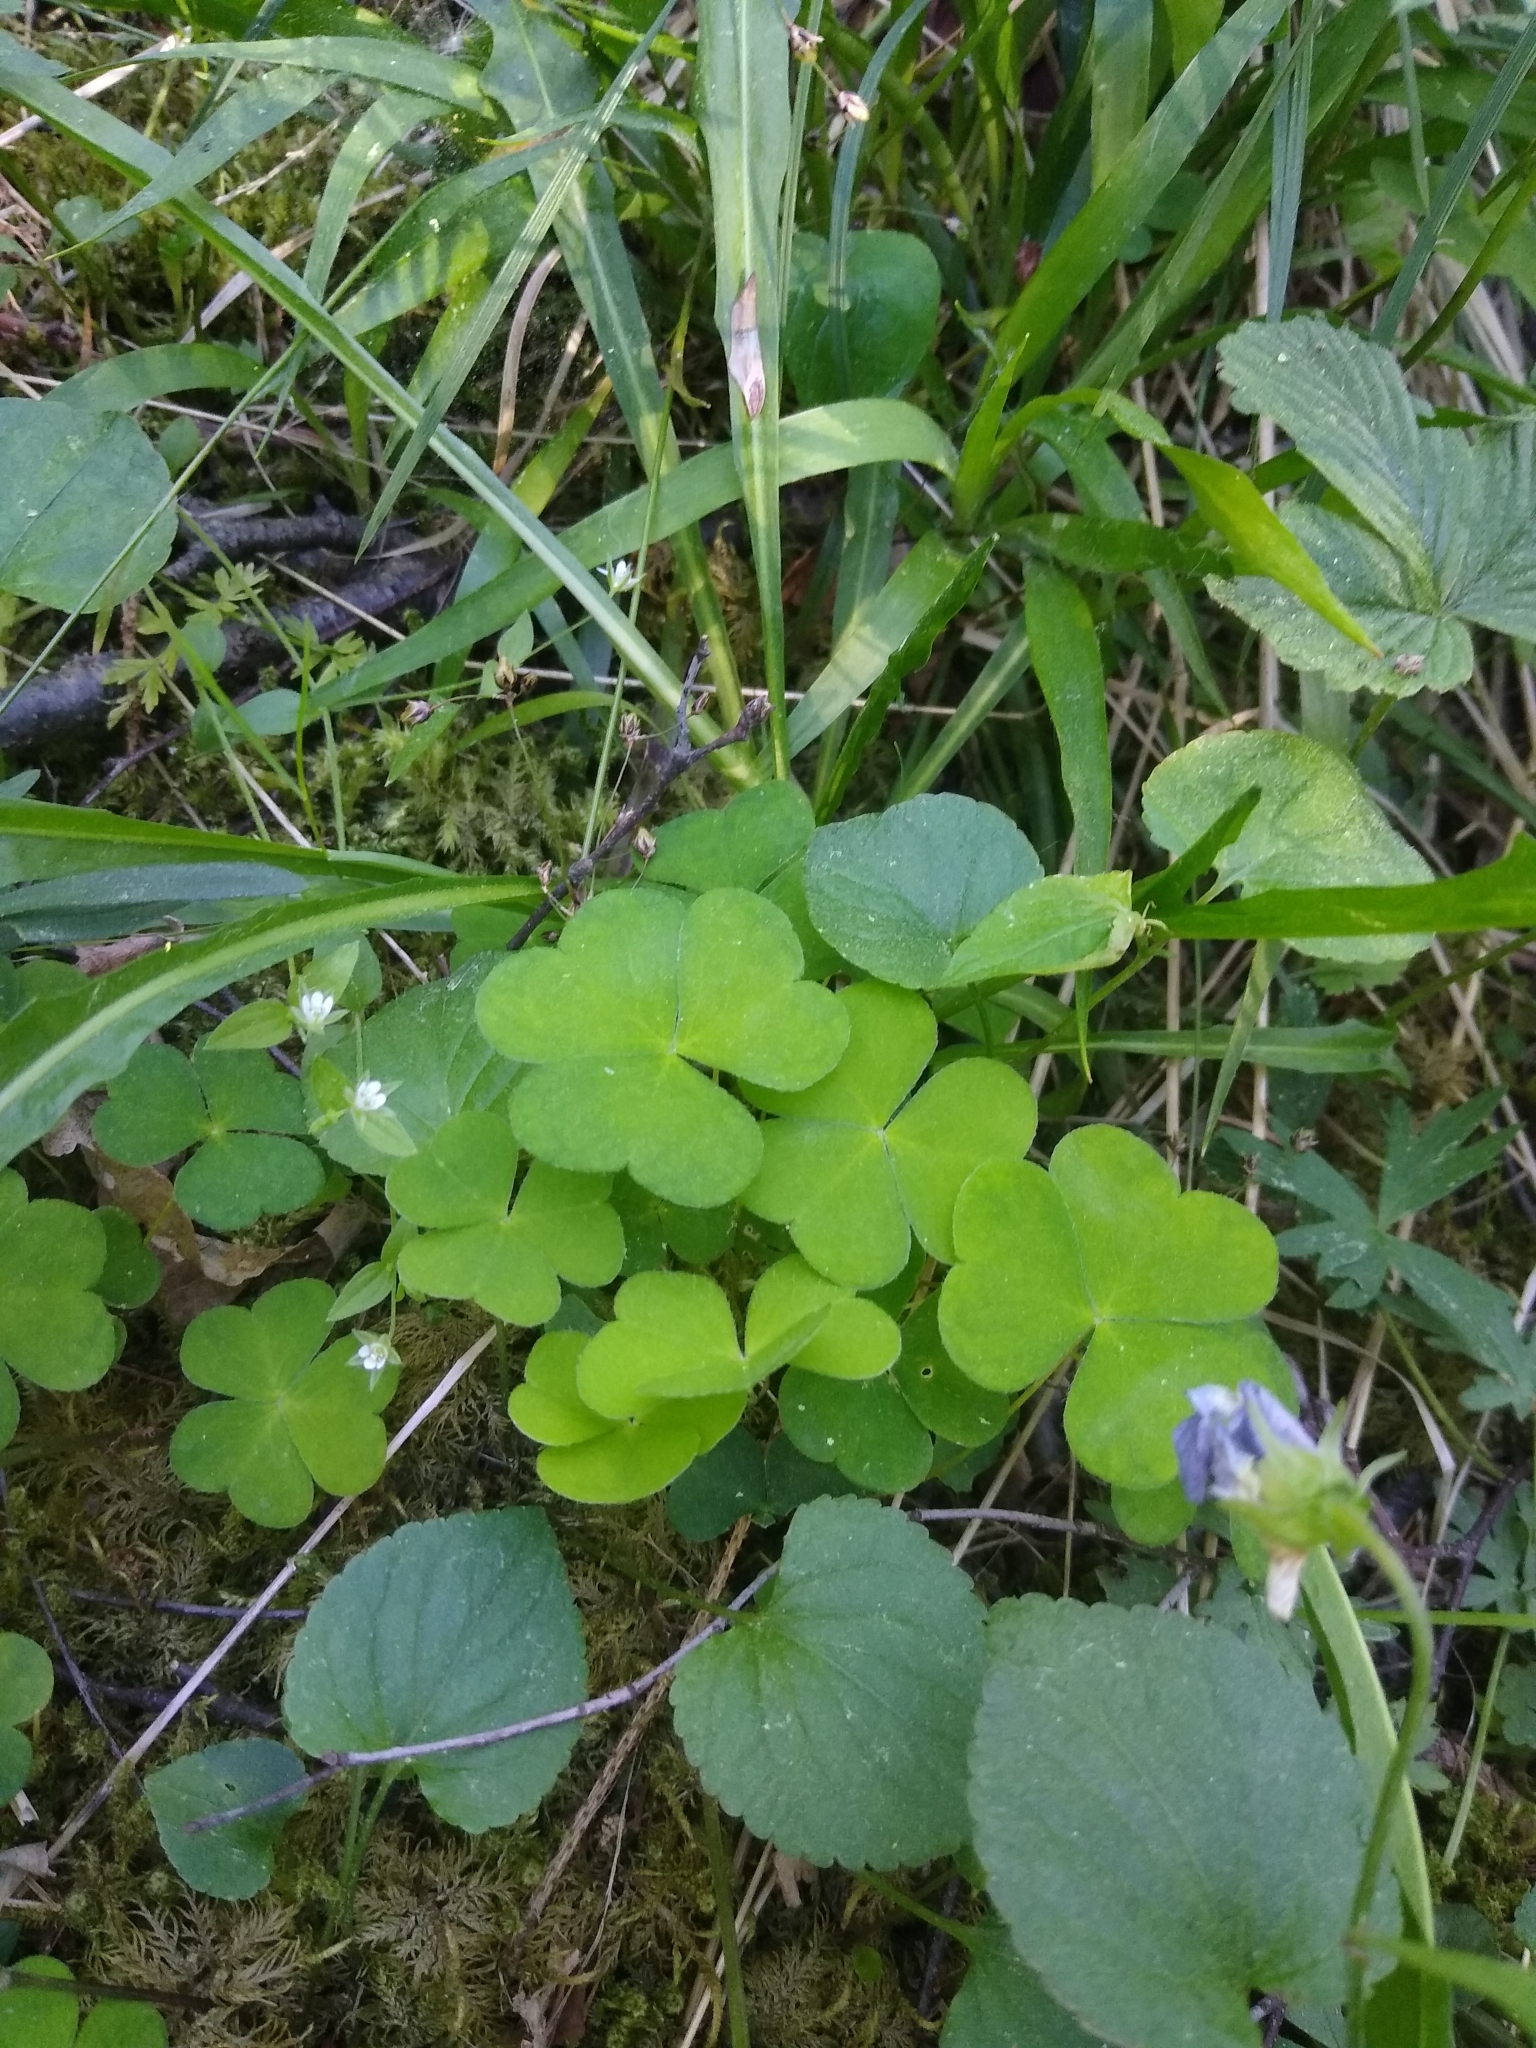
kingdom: Plantae
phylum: Tracheophyta
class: Magnoliopsida
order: Oxalidales
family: Oxalidaceae
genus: Oxalis
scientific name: Oxalis acetosella
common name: Wood-sorrel
